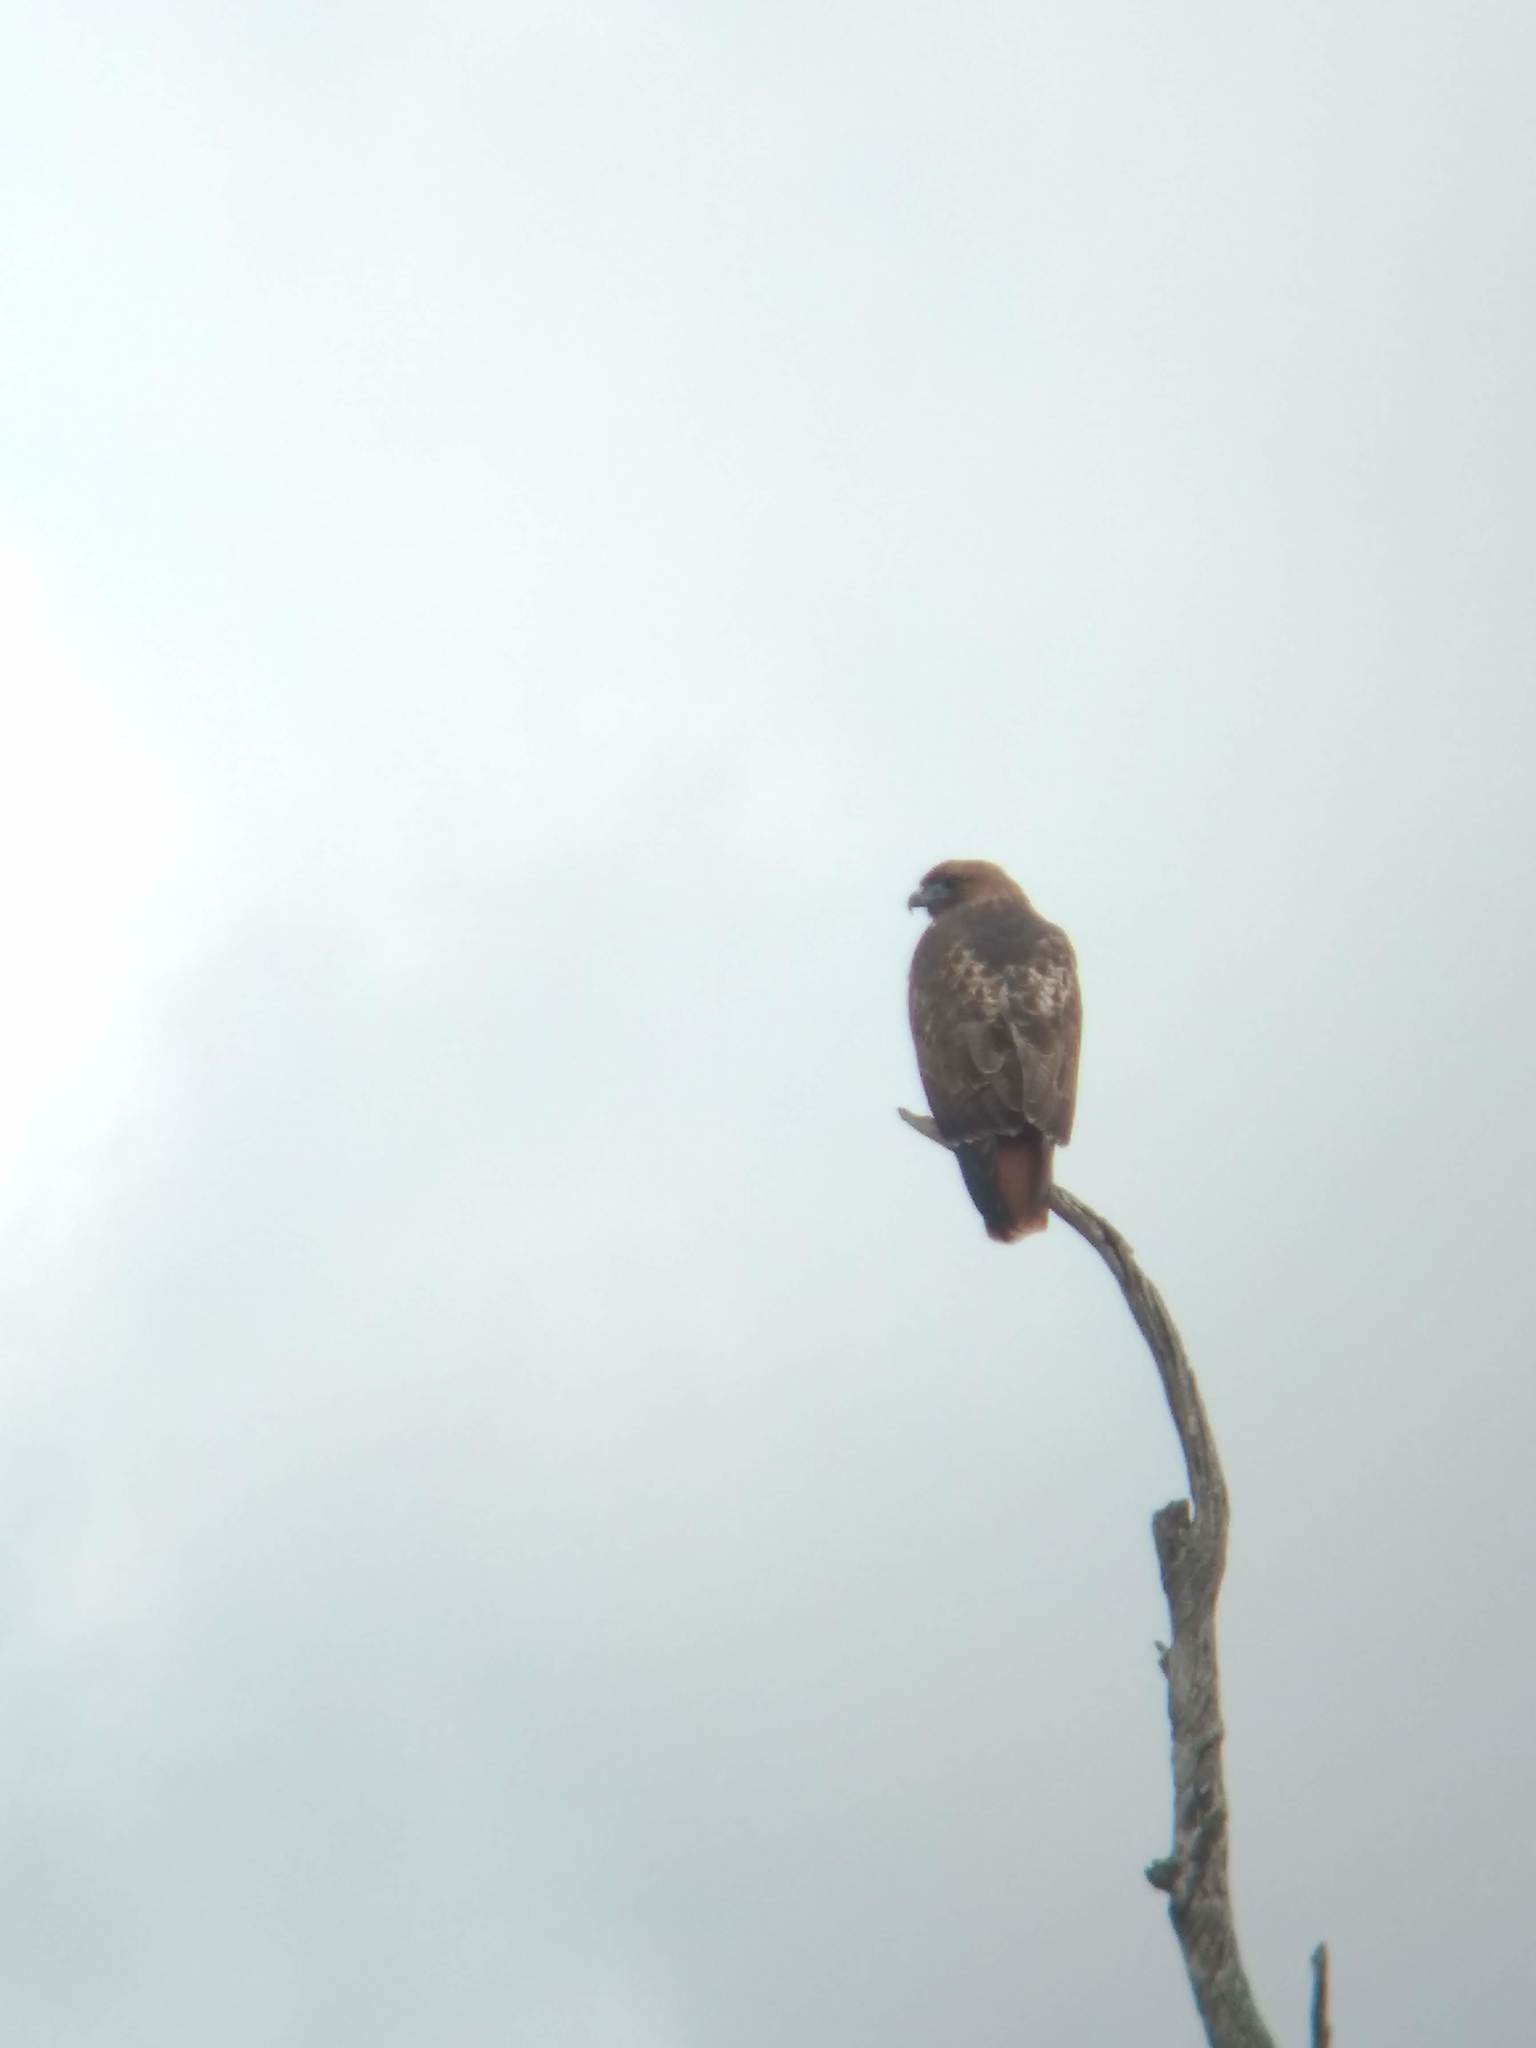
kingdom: Animalia
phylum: Chordata
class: Aves
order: Accipitriformes
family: Accipitridae
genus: Buteo
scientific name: Buteo jamaicensis
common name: Red-tailed hawk
